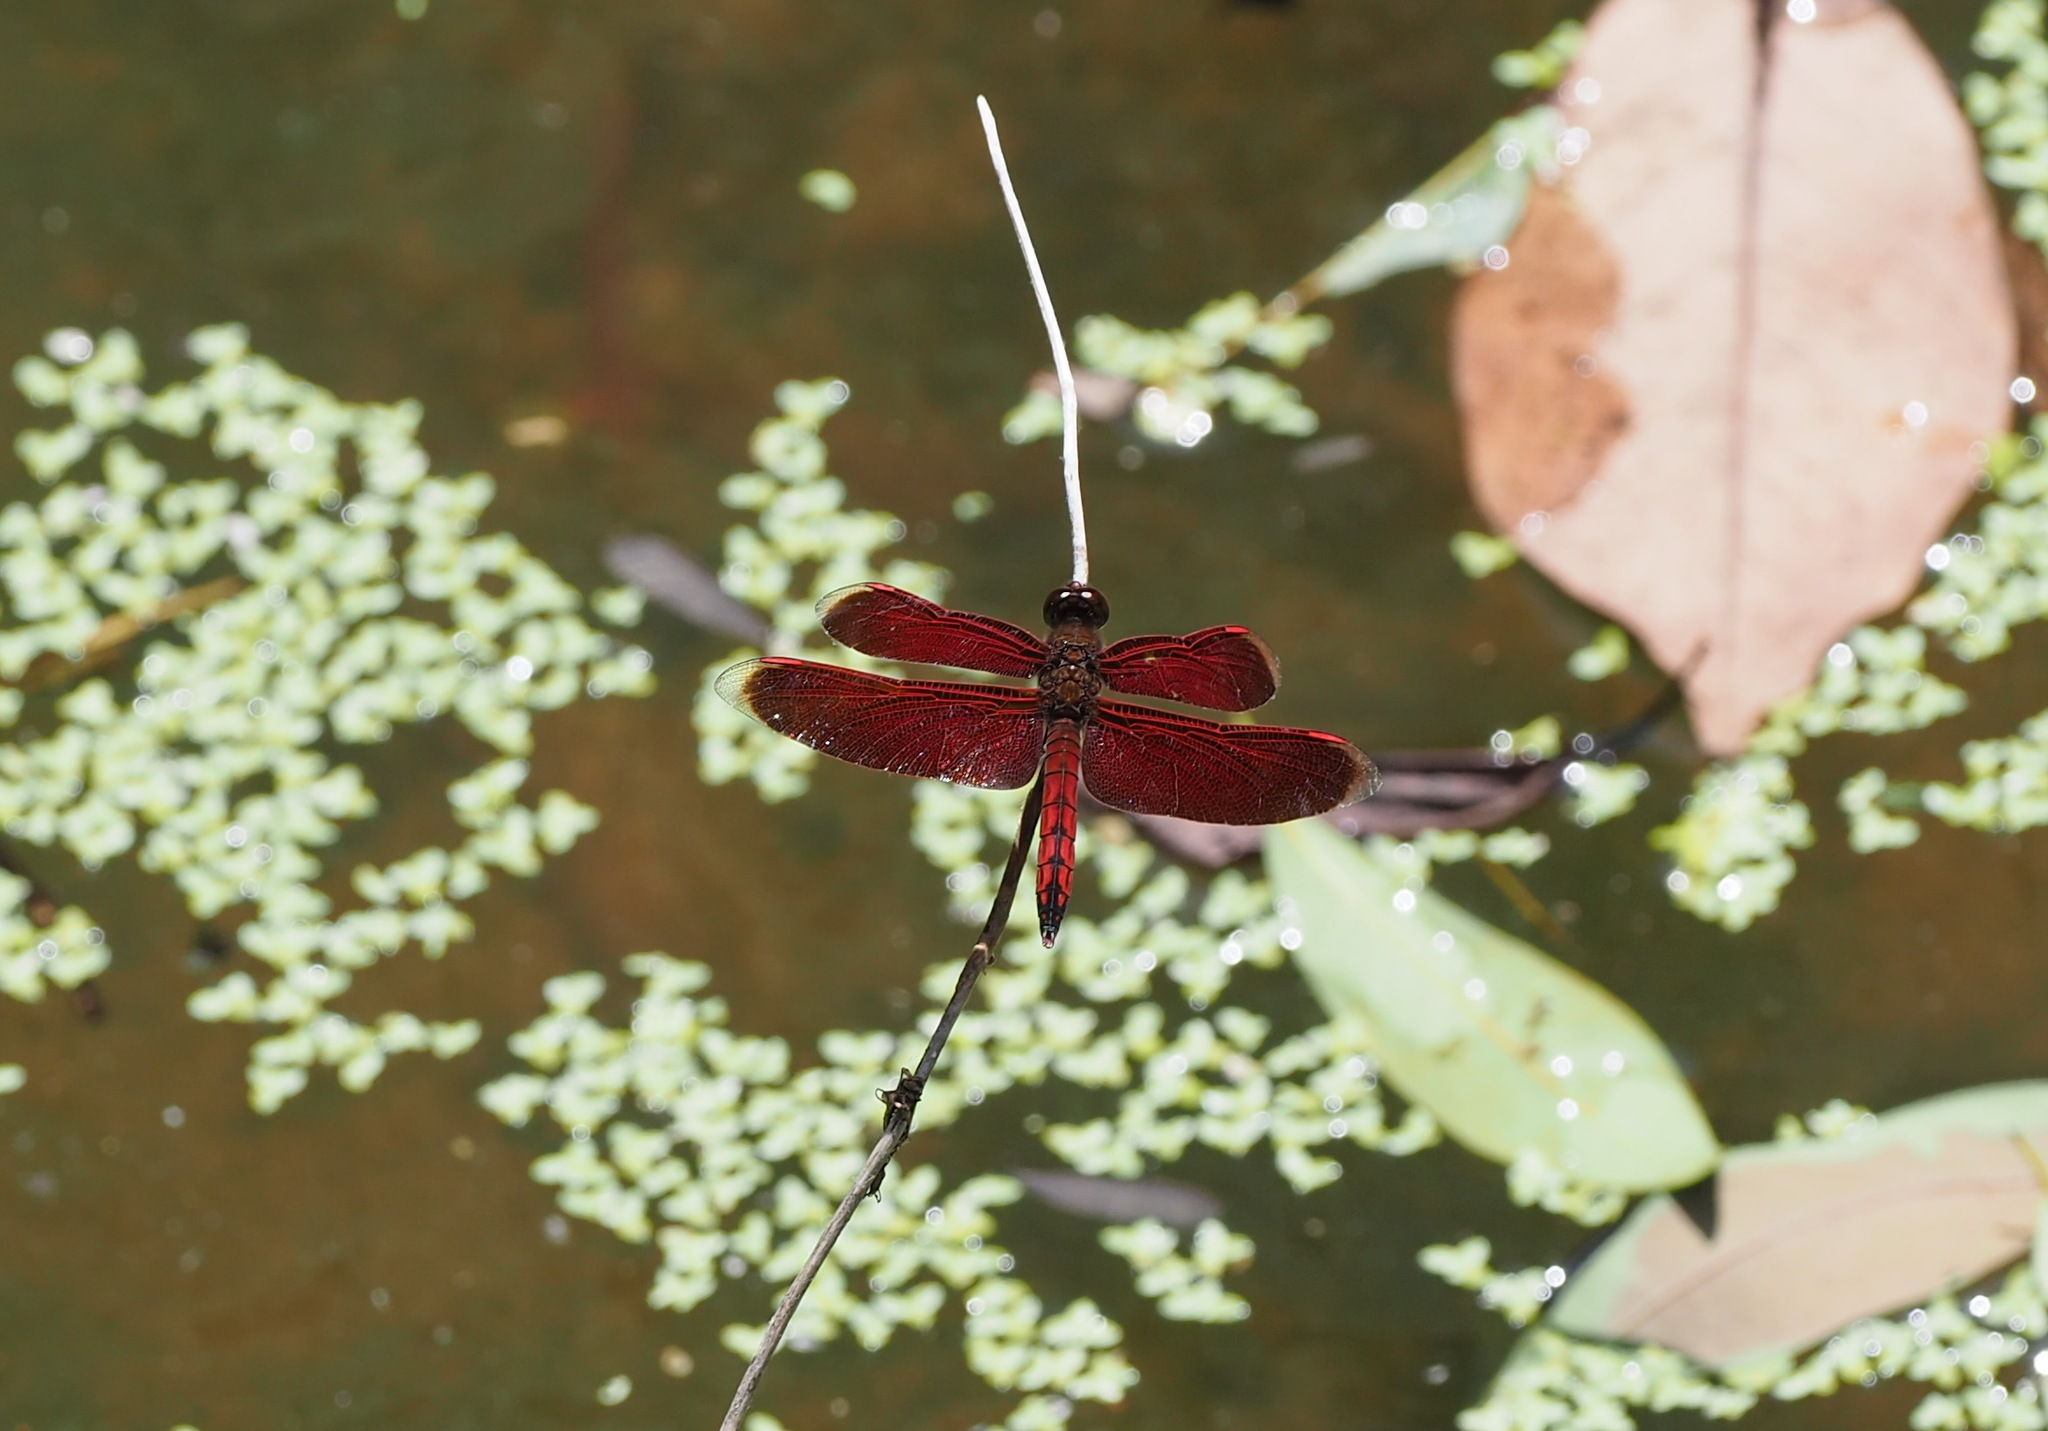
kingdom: Animalia
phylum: Arthropoda
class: Insecta
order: Odonata
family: Libellulidae
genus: Neurothemis
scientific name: Neurothemis taiwanensis
